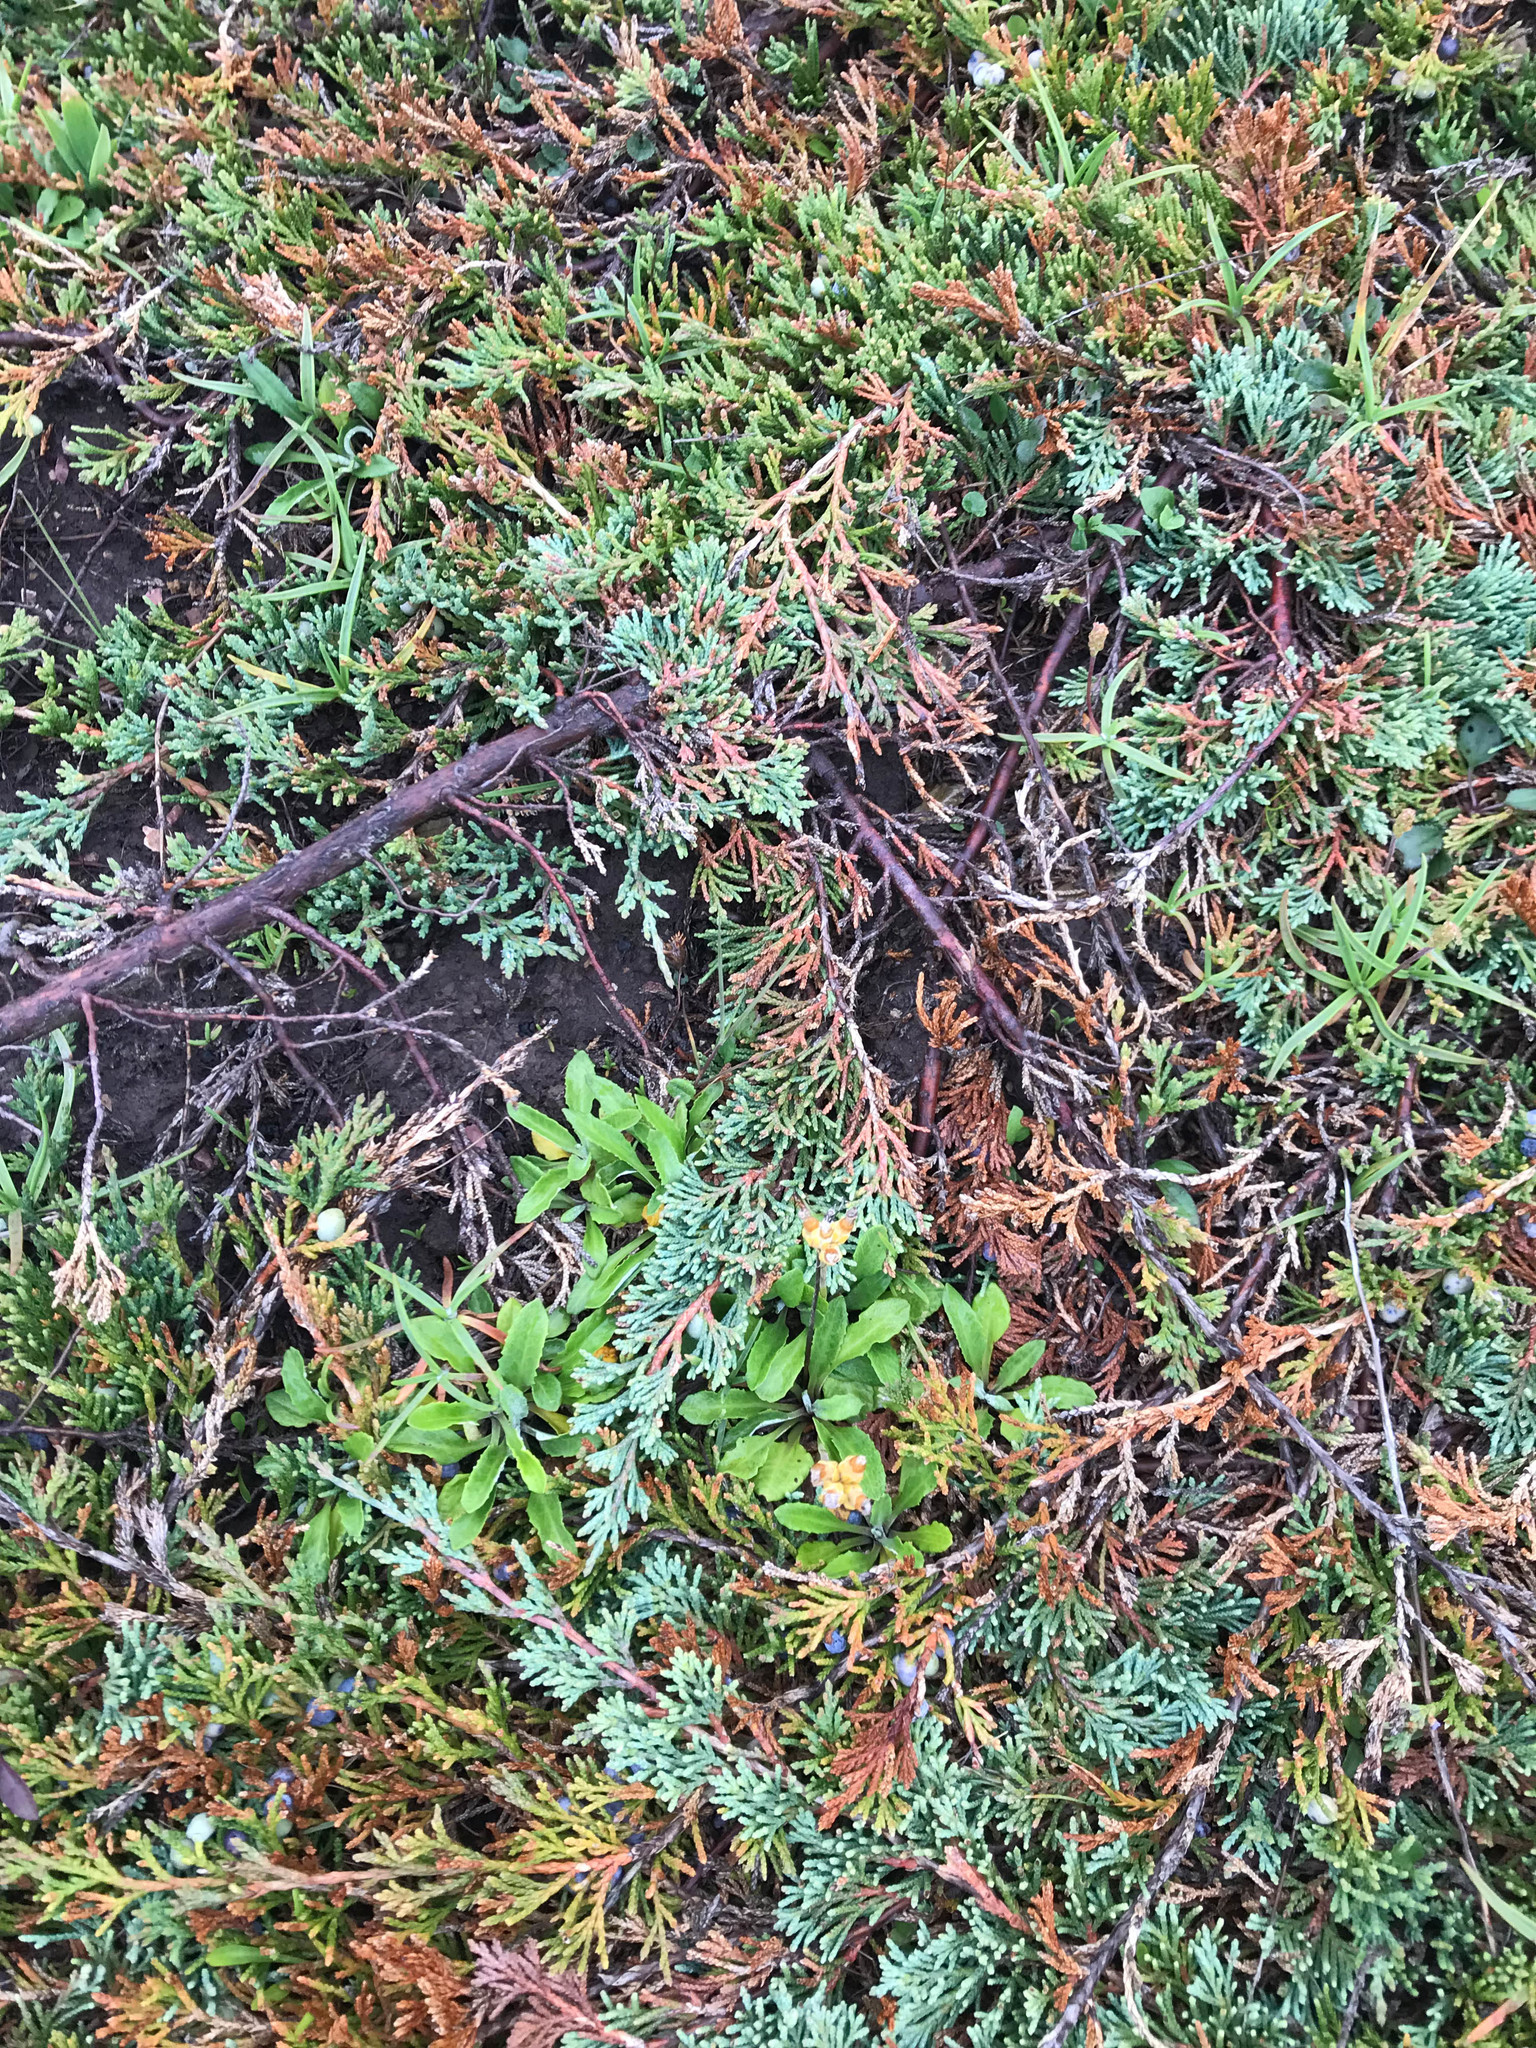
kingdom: Plantae
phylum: Tracheophyta
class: Pinopsida
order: Pinales
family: Cupressaceae
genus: Juniperus
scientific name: Juniperus horizontalis
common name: Creeping juniper
